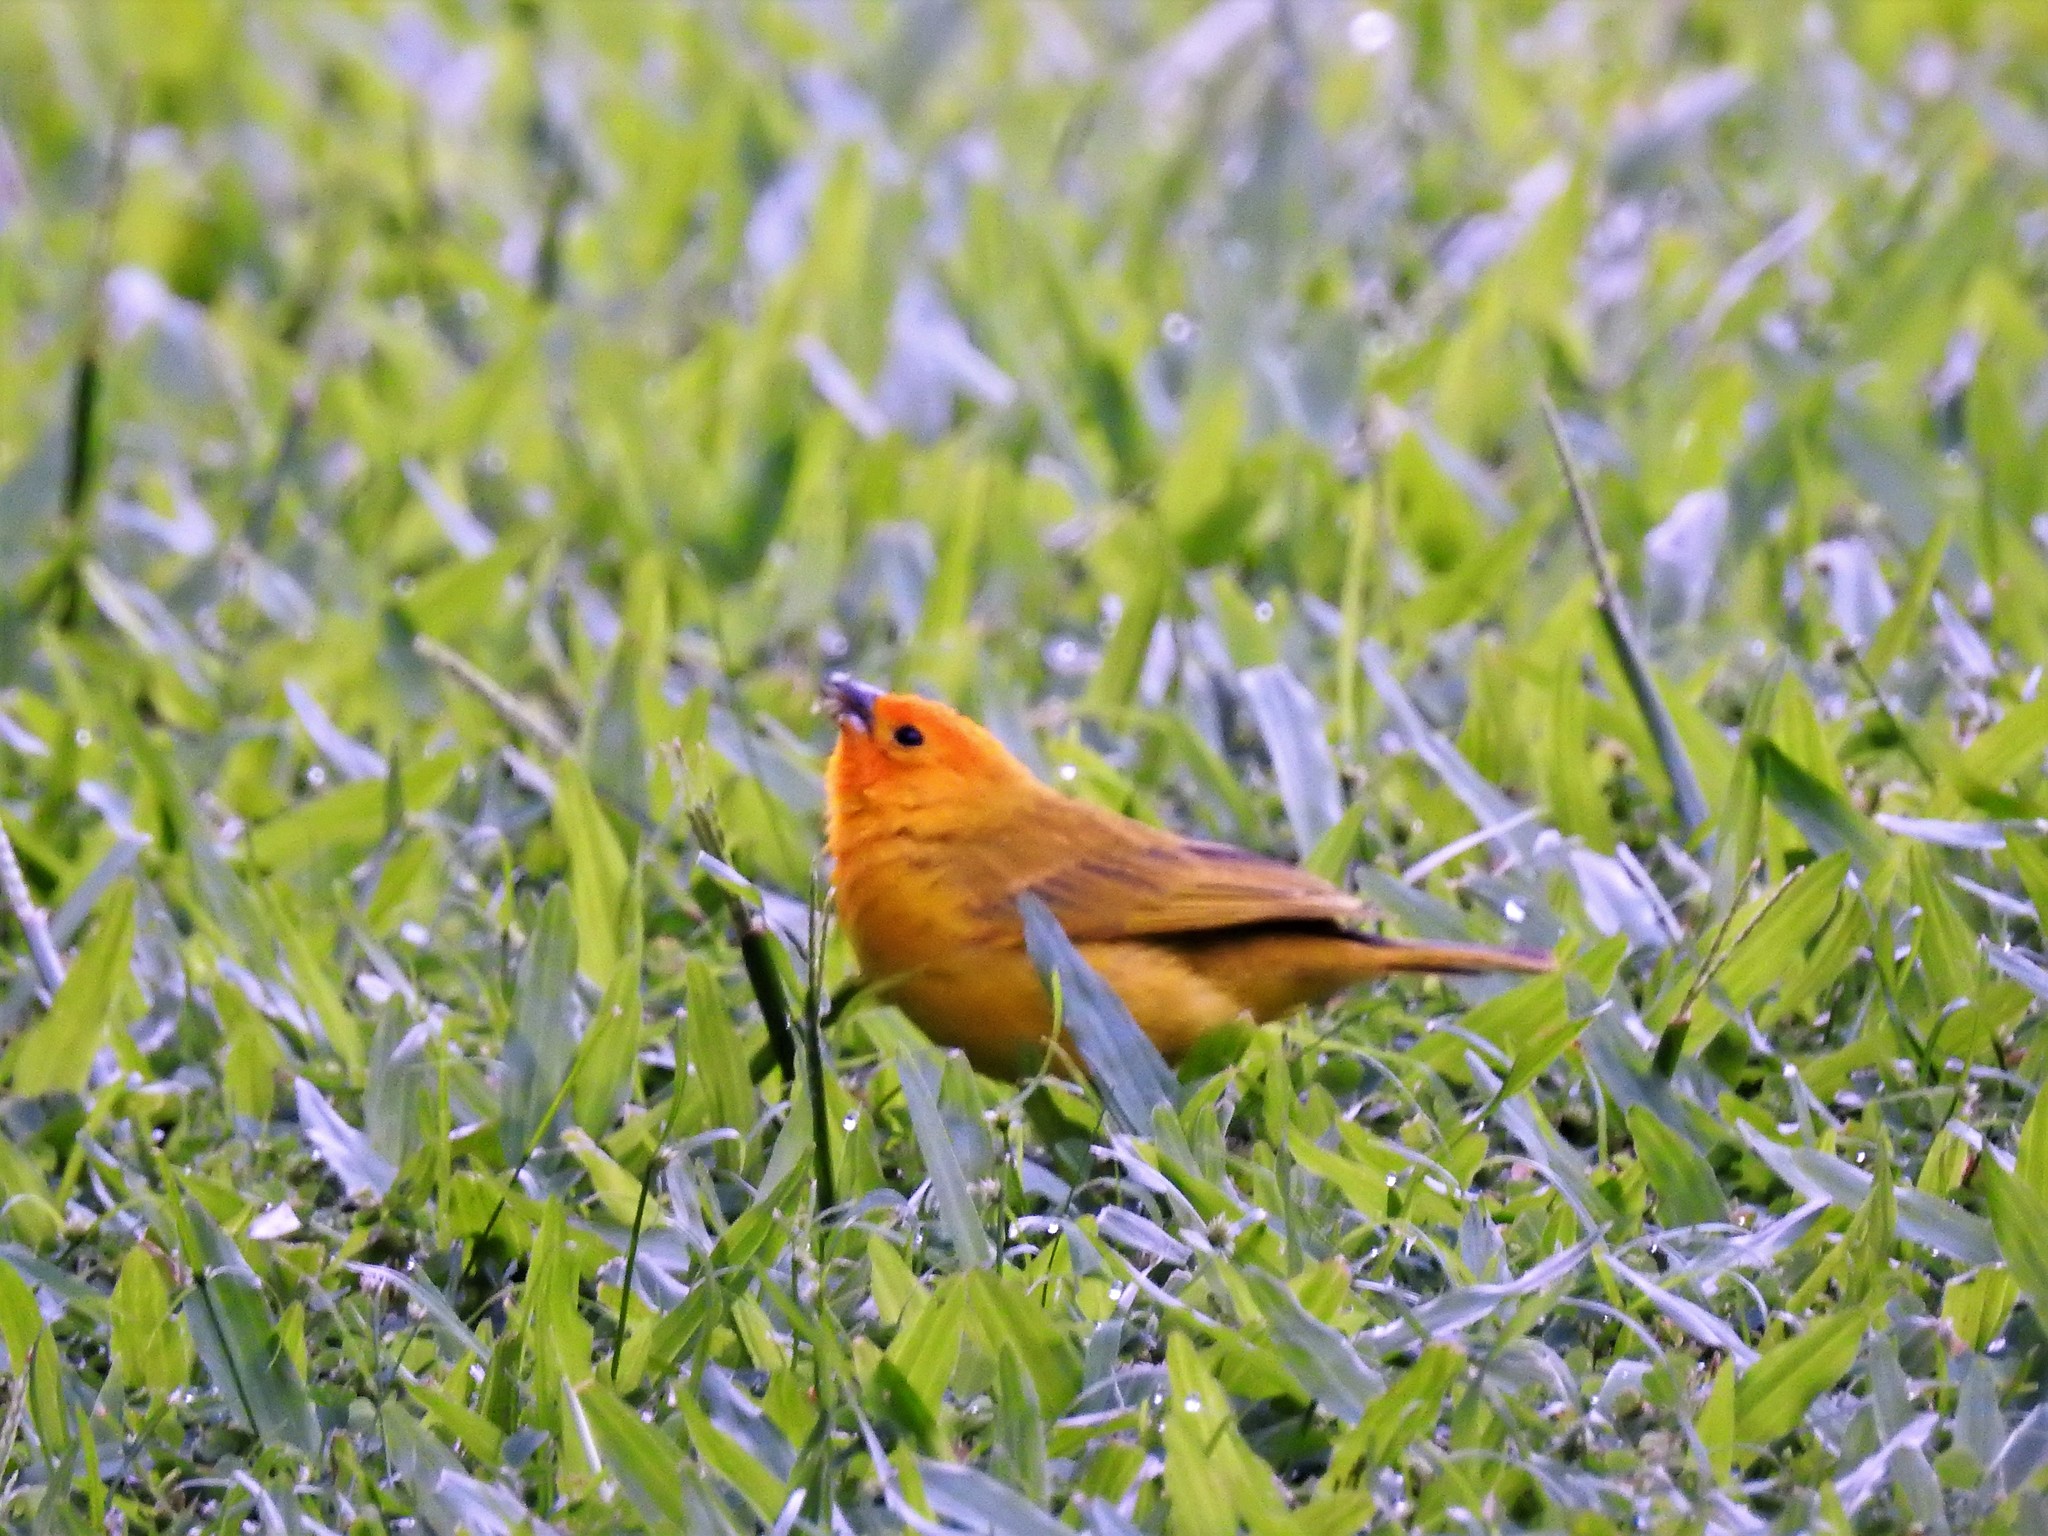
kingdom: Animalia
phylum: Chordata
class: Aves
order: Passeriformes
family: Thraupidae
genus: Sicalis
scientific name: Sicalis flaveola
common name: Saffron finch
